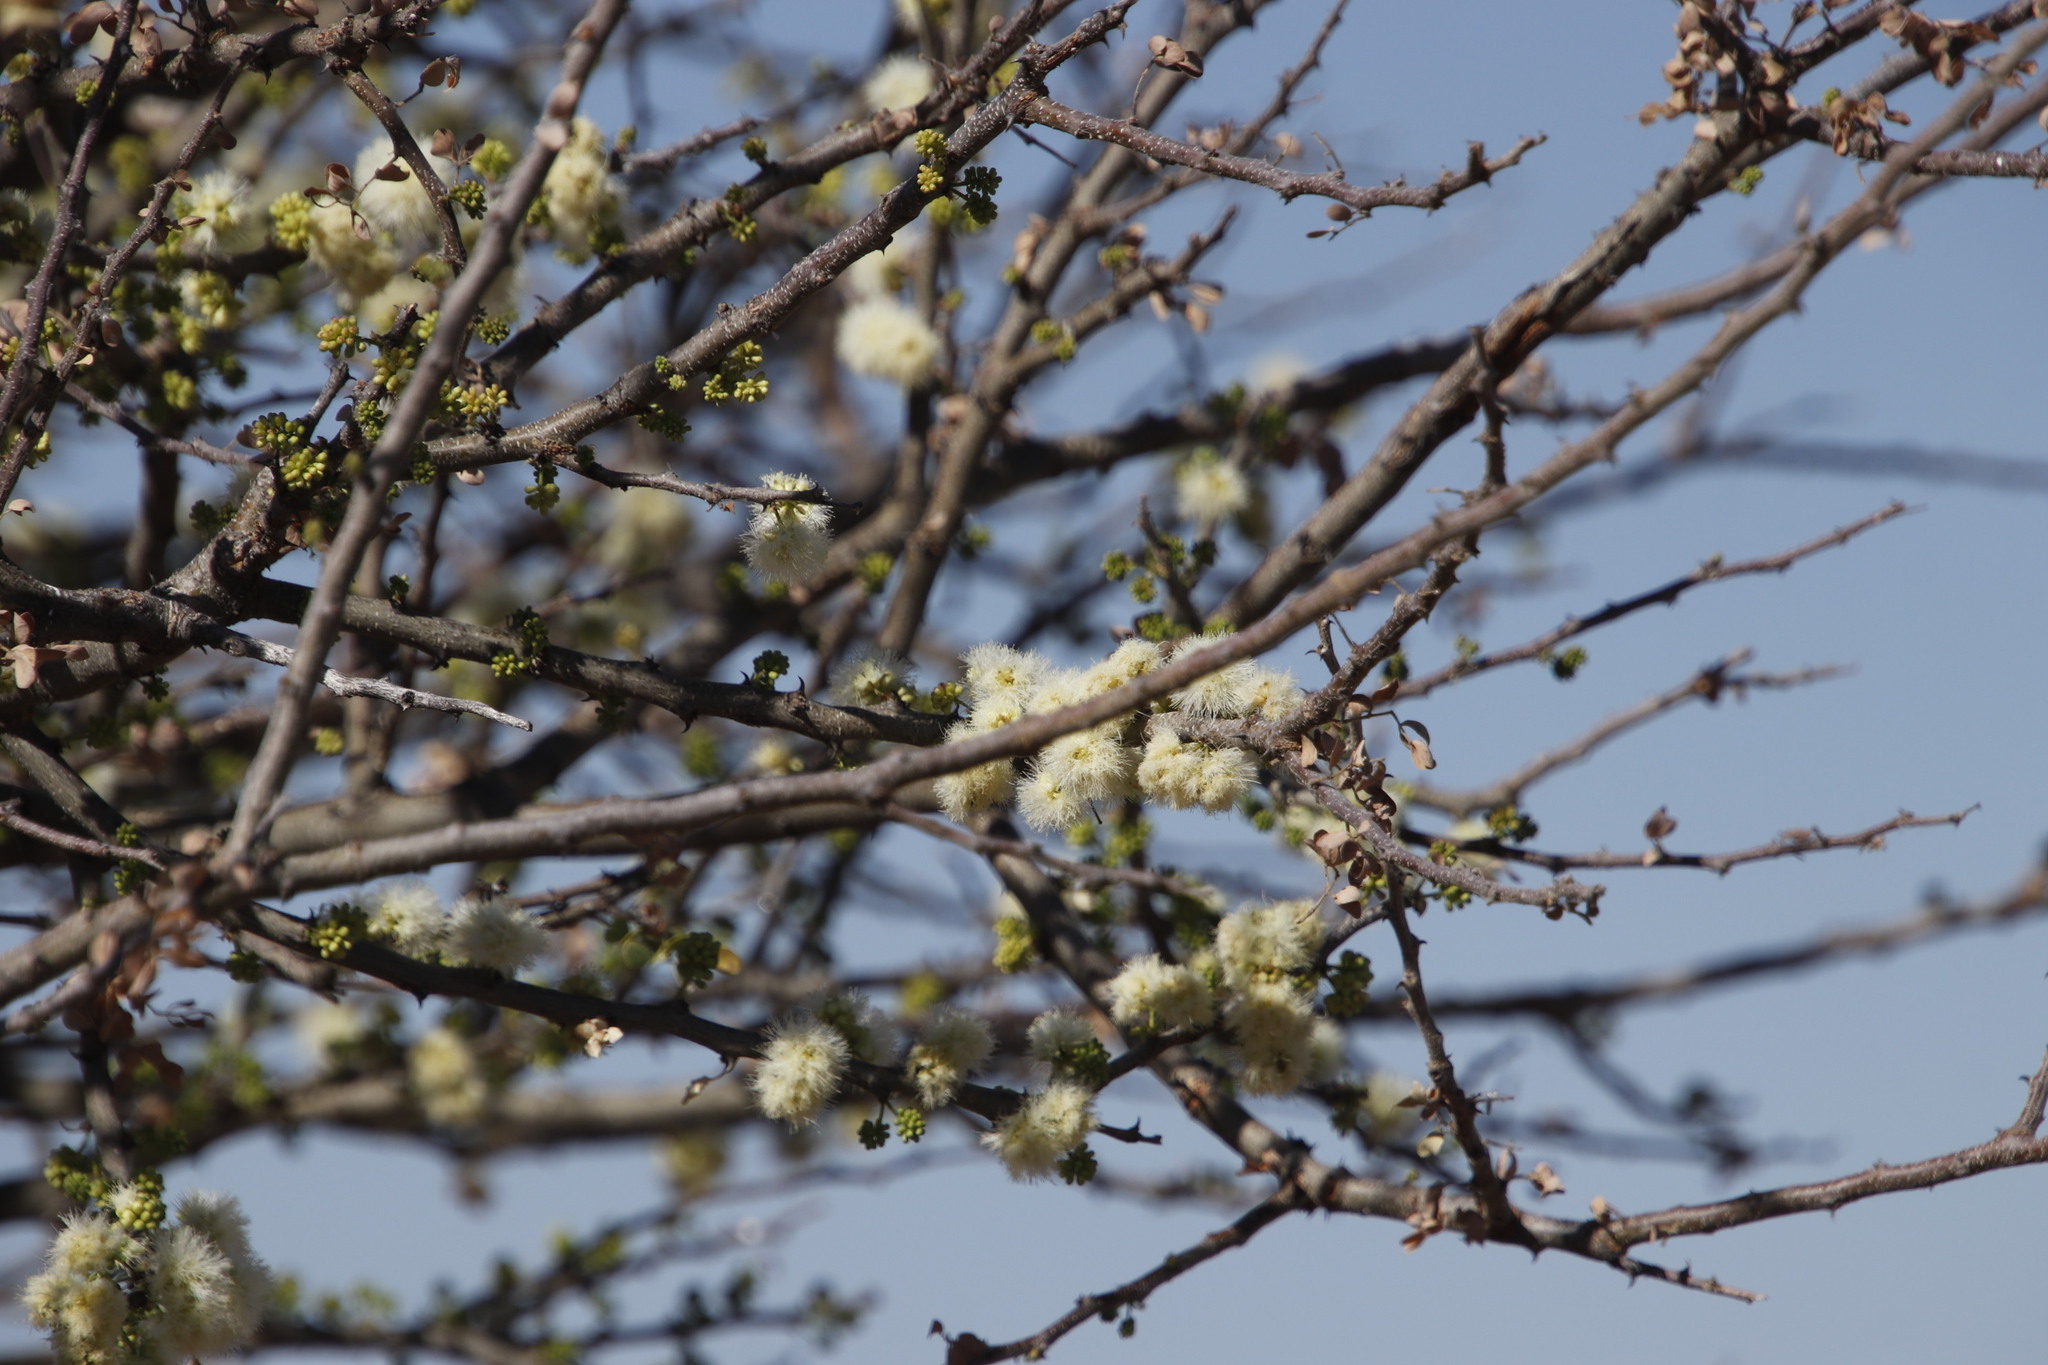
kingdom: Plantae
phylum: Tracheophyta
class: Magnoliopsida
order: Fabales
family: Fabaceae
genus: Senegalia
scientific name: Senegalia mellifera
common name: Hookthorn
